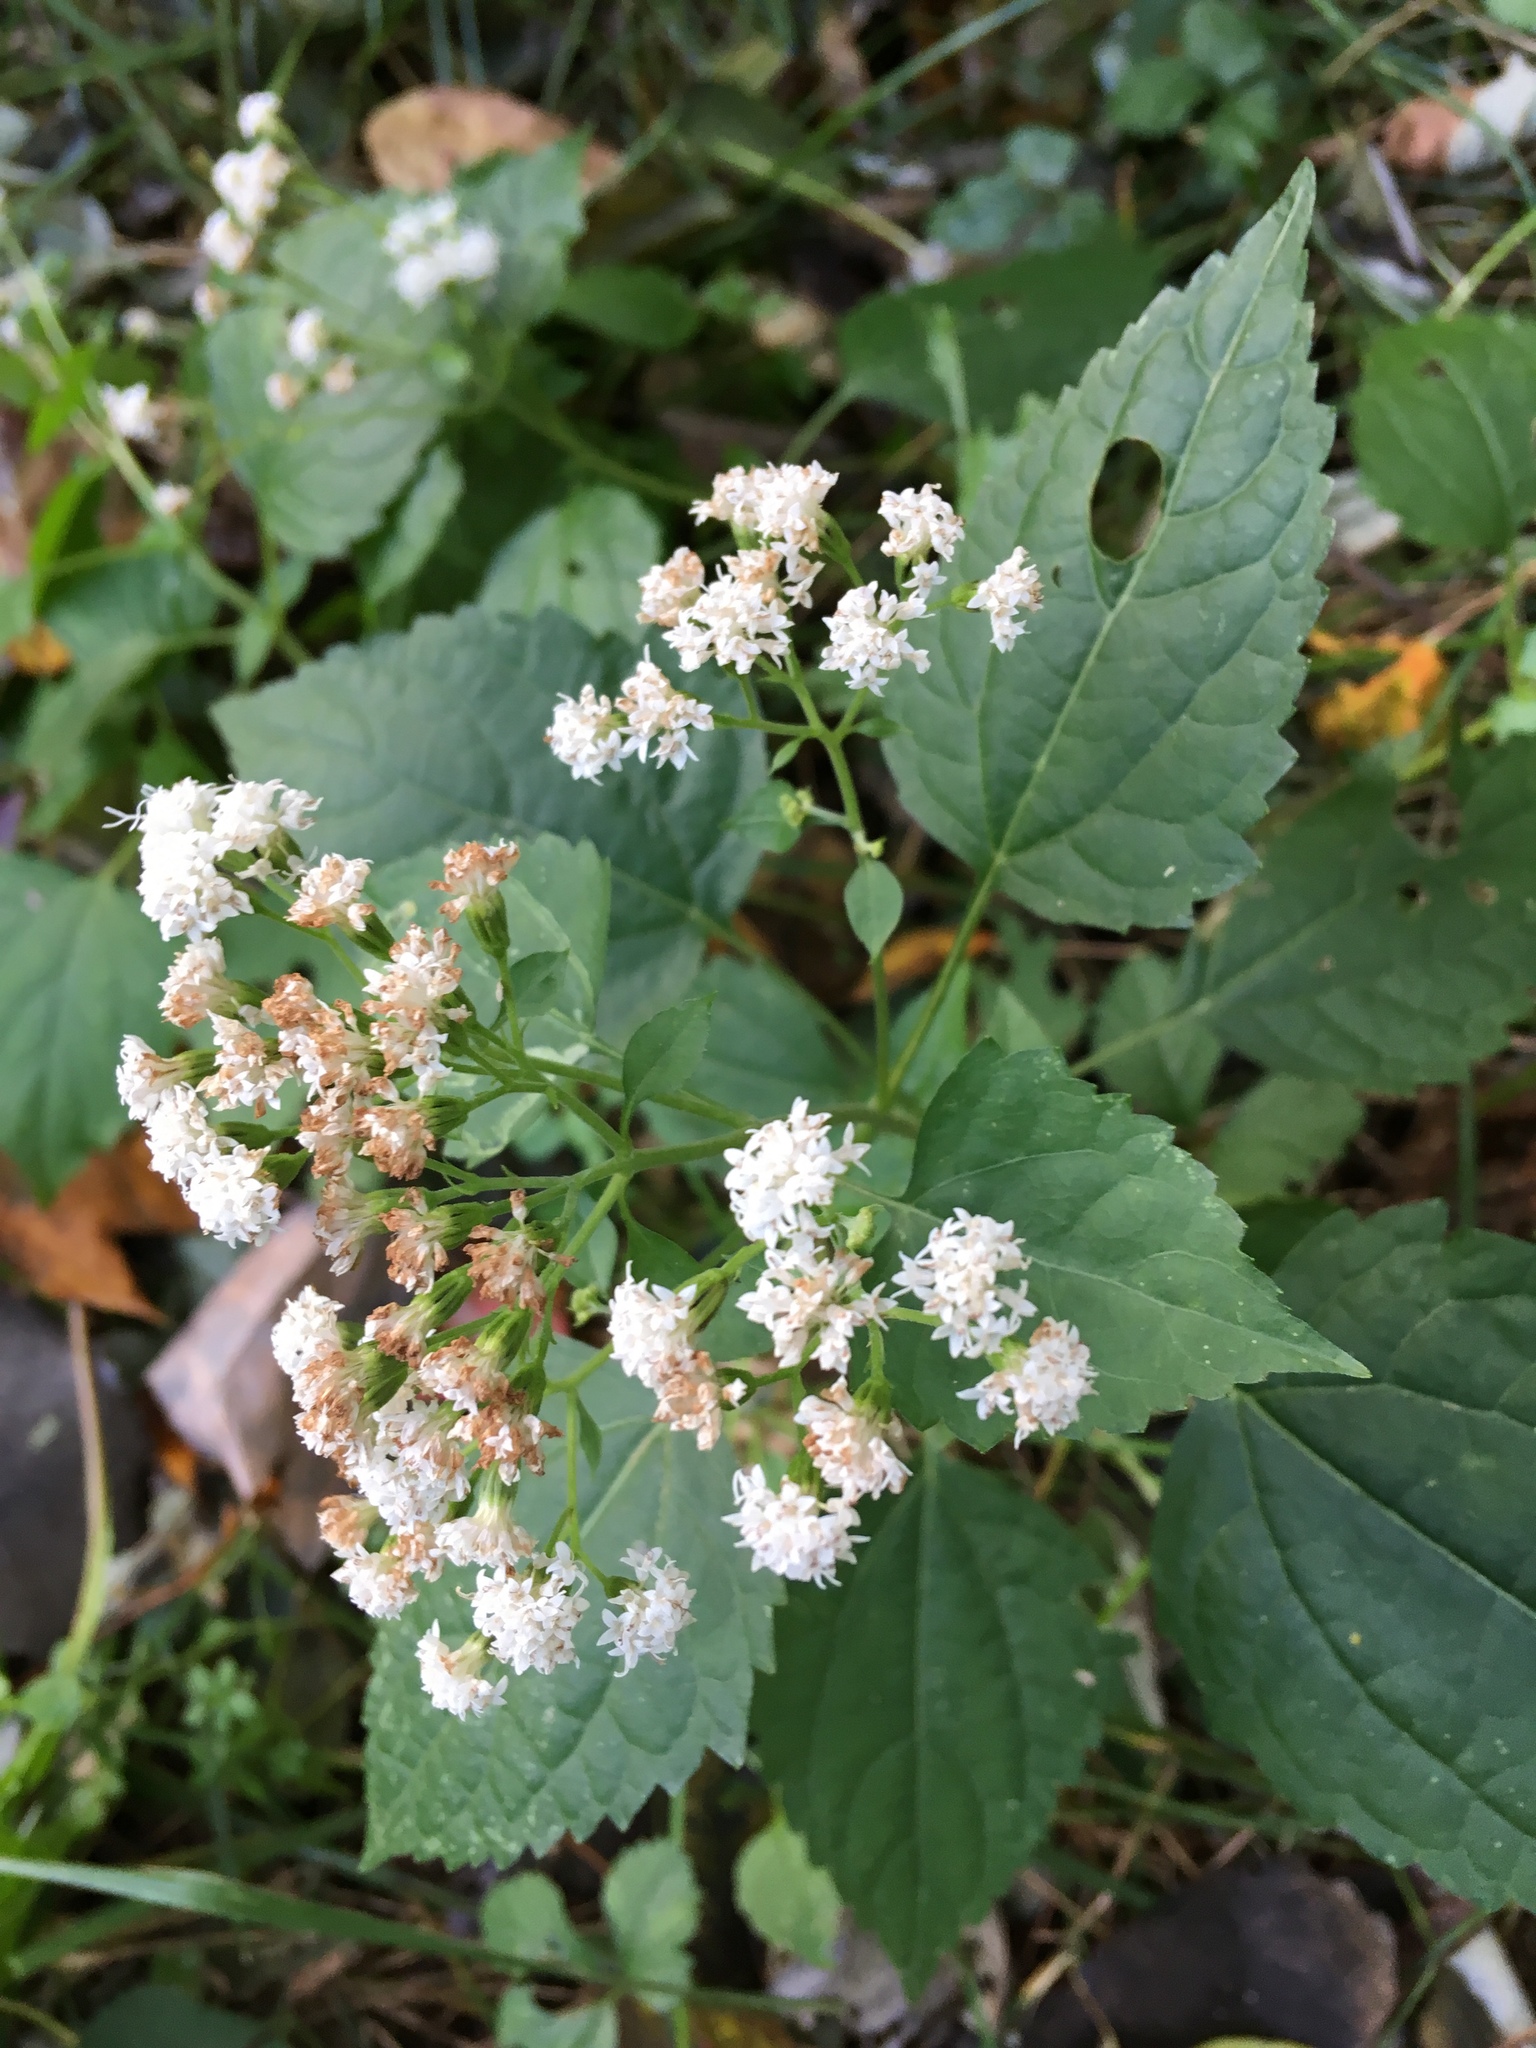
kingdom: Plantae
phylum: Tracheophyta
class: Magnoliopsida
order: Asterales
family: Asteraceae
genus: Ageratina
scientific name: Ageratina altissima
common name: White snakeroot
